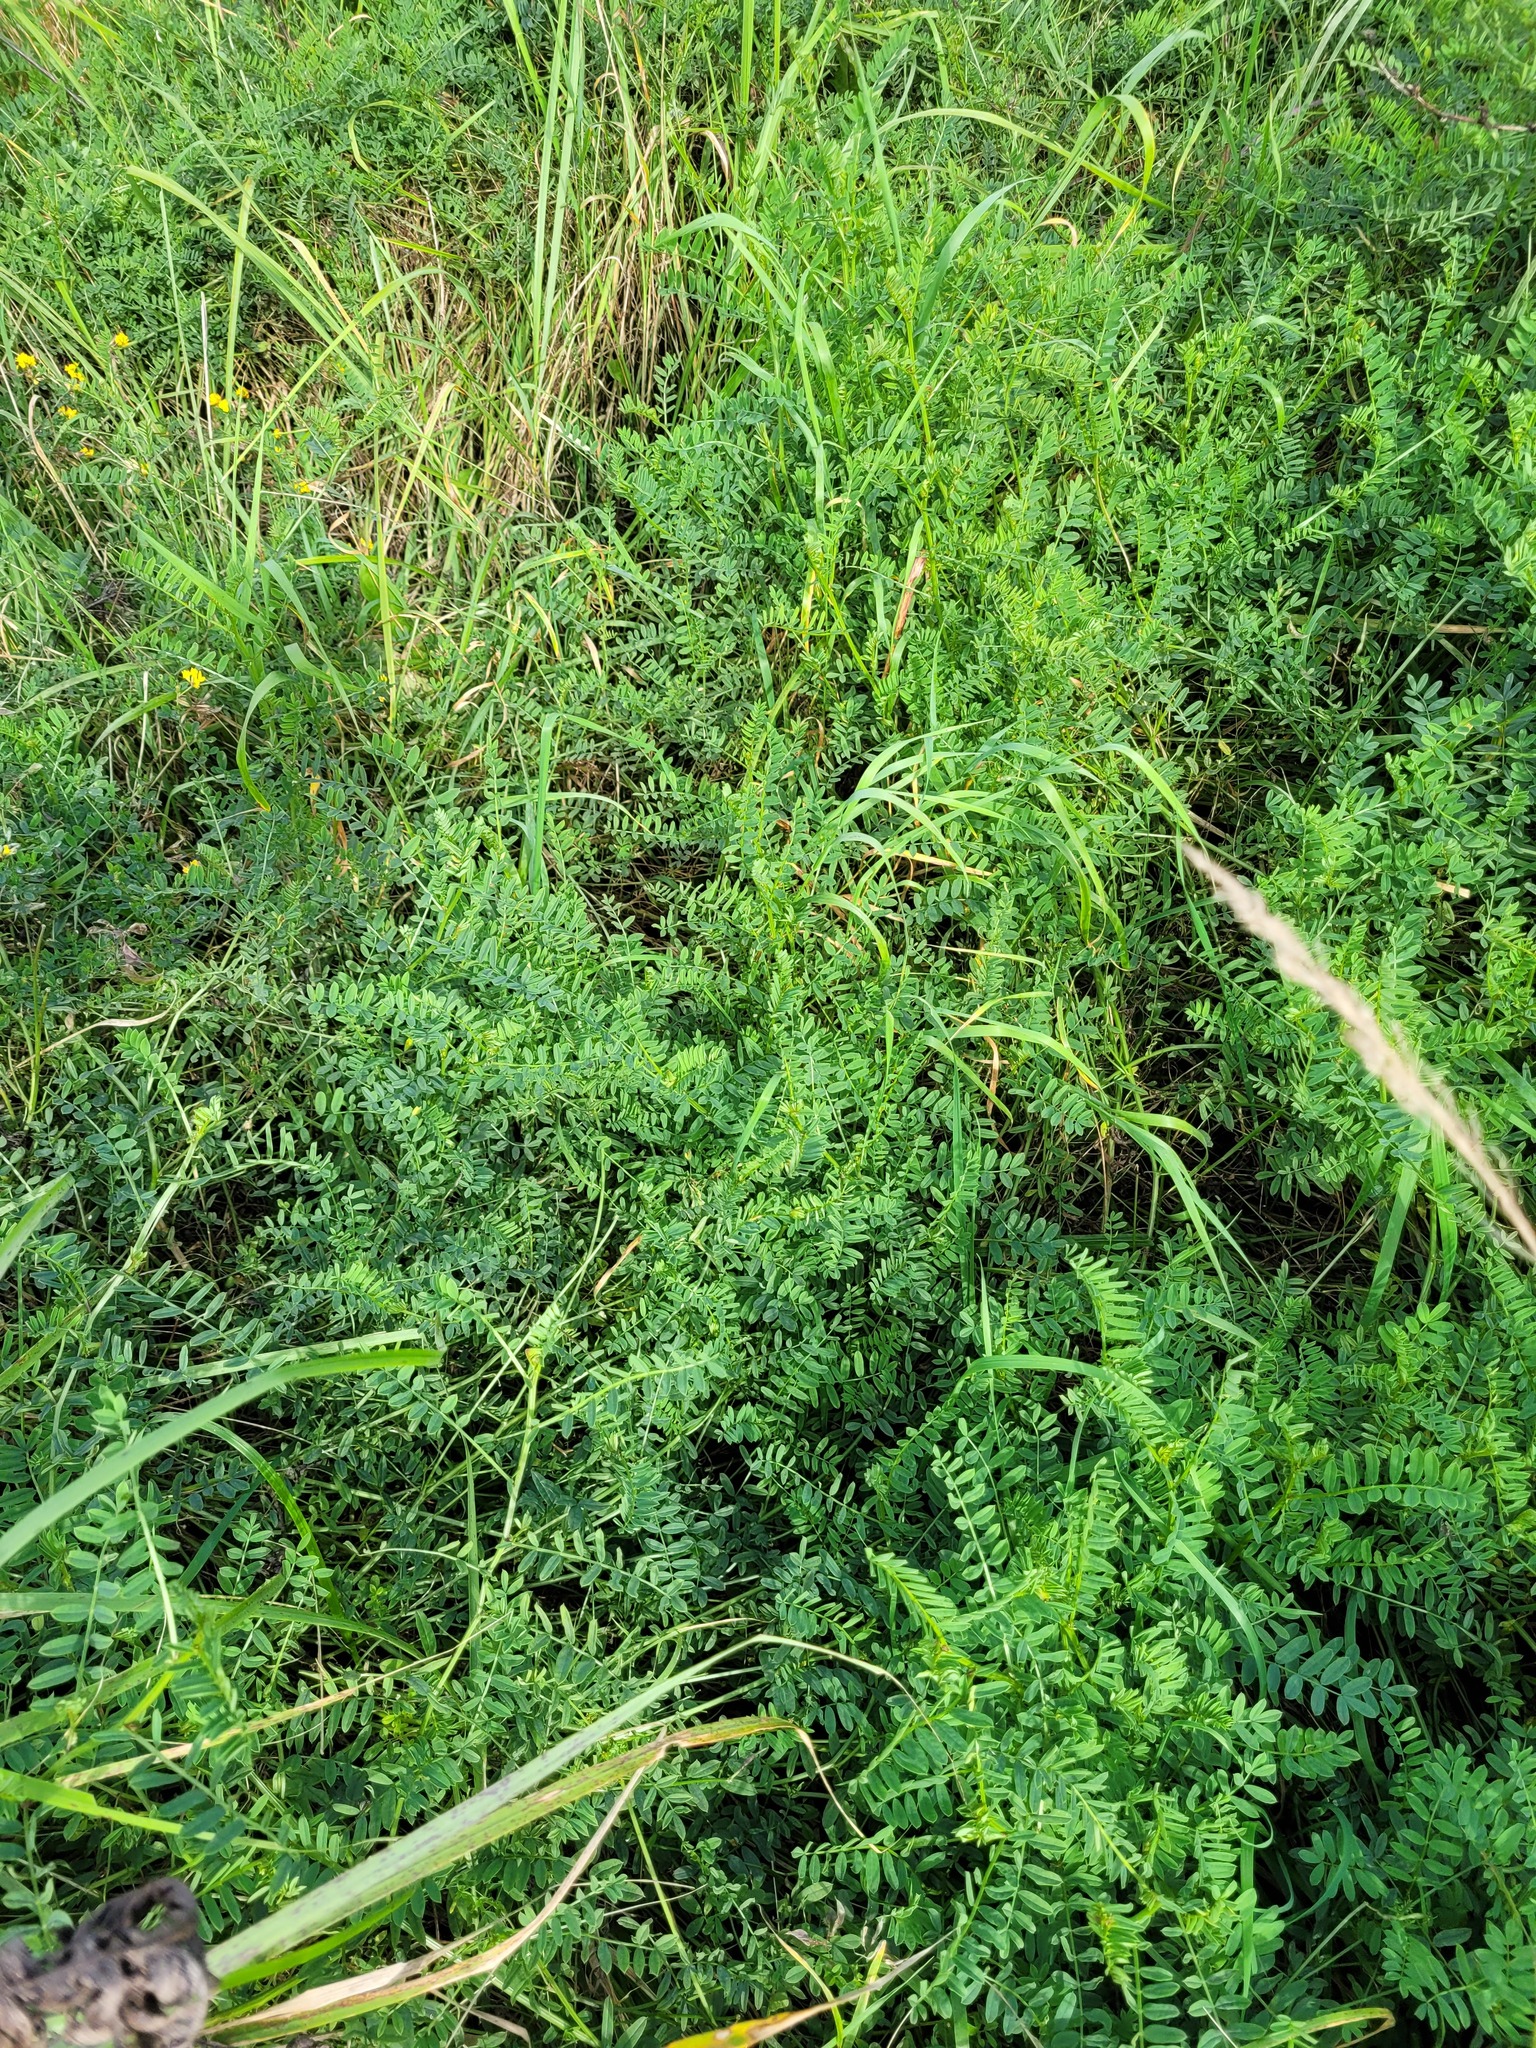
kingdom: Plantae
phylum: Tracheophyta
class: Magnoliopsida
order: Fabales
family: Fabaceae
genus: Coronilla
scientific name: Coronilla varia
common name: Crownvetch
